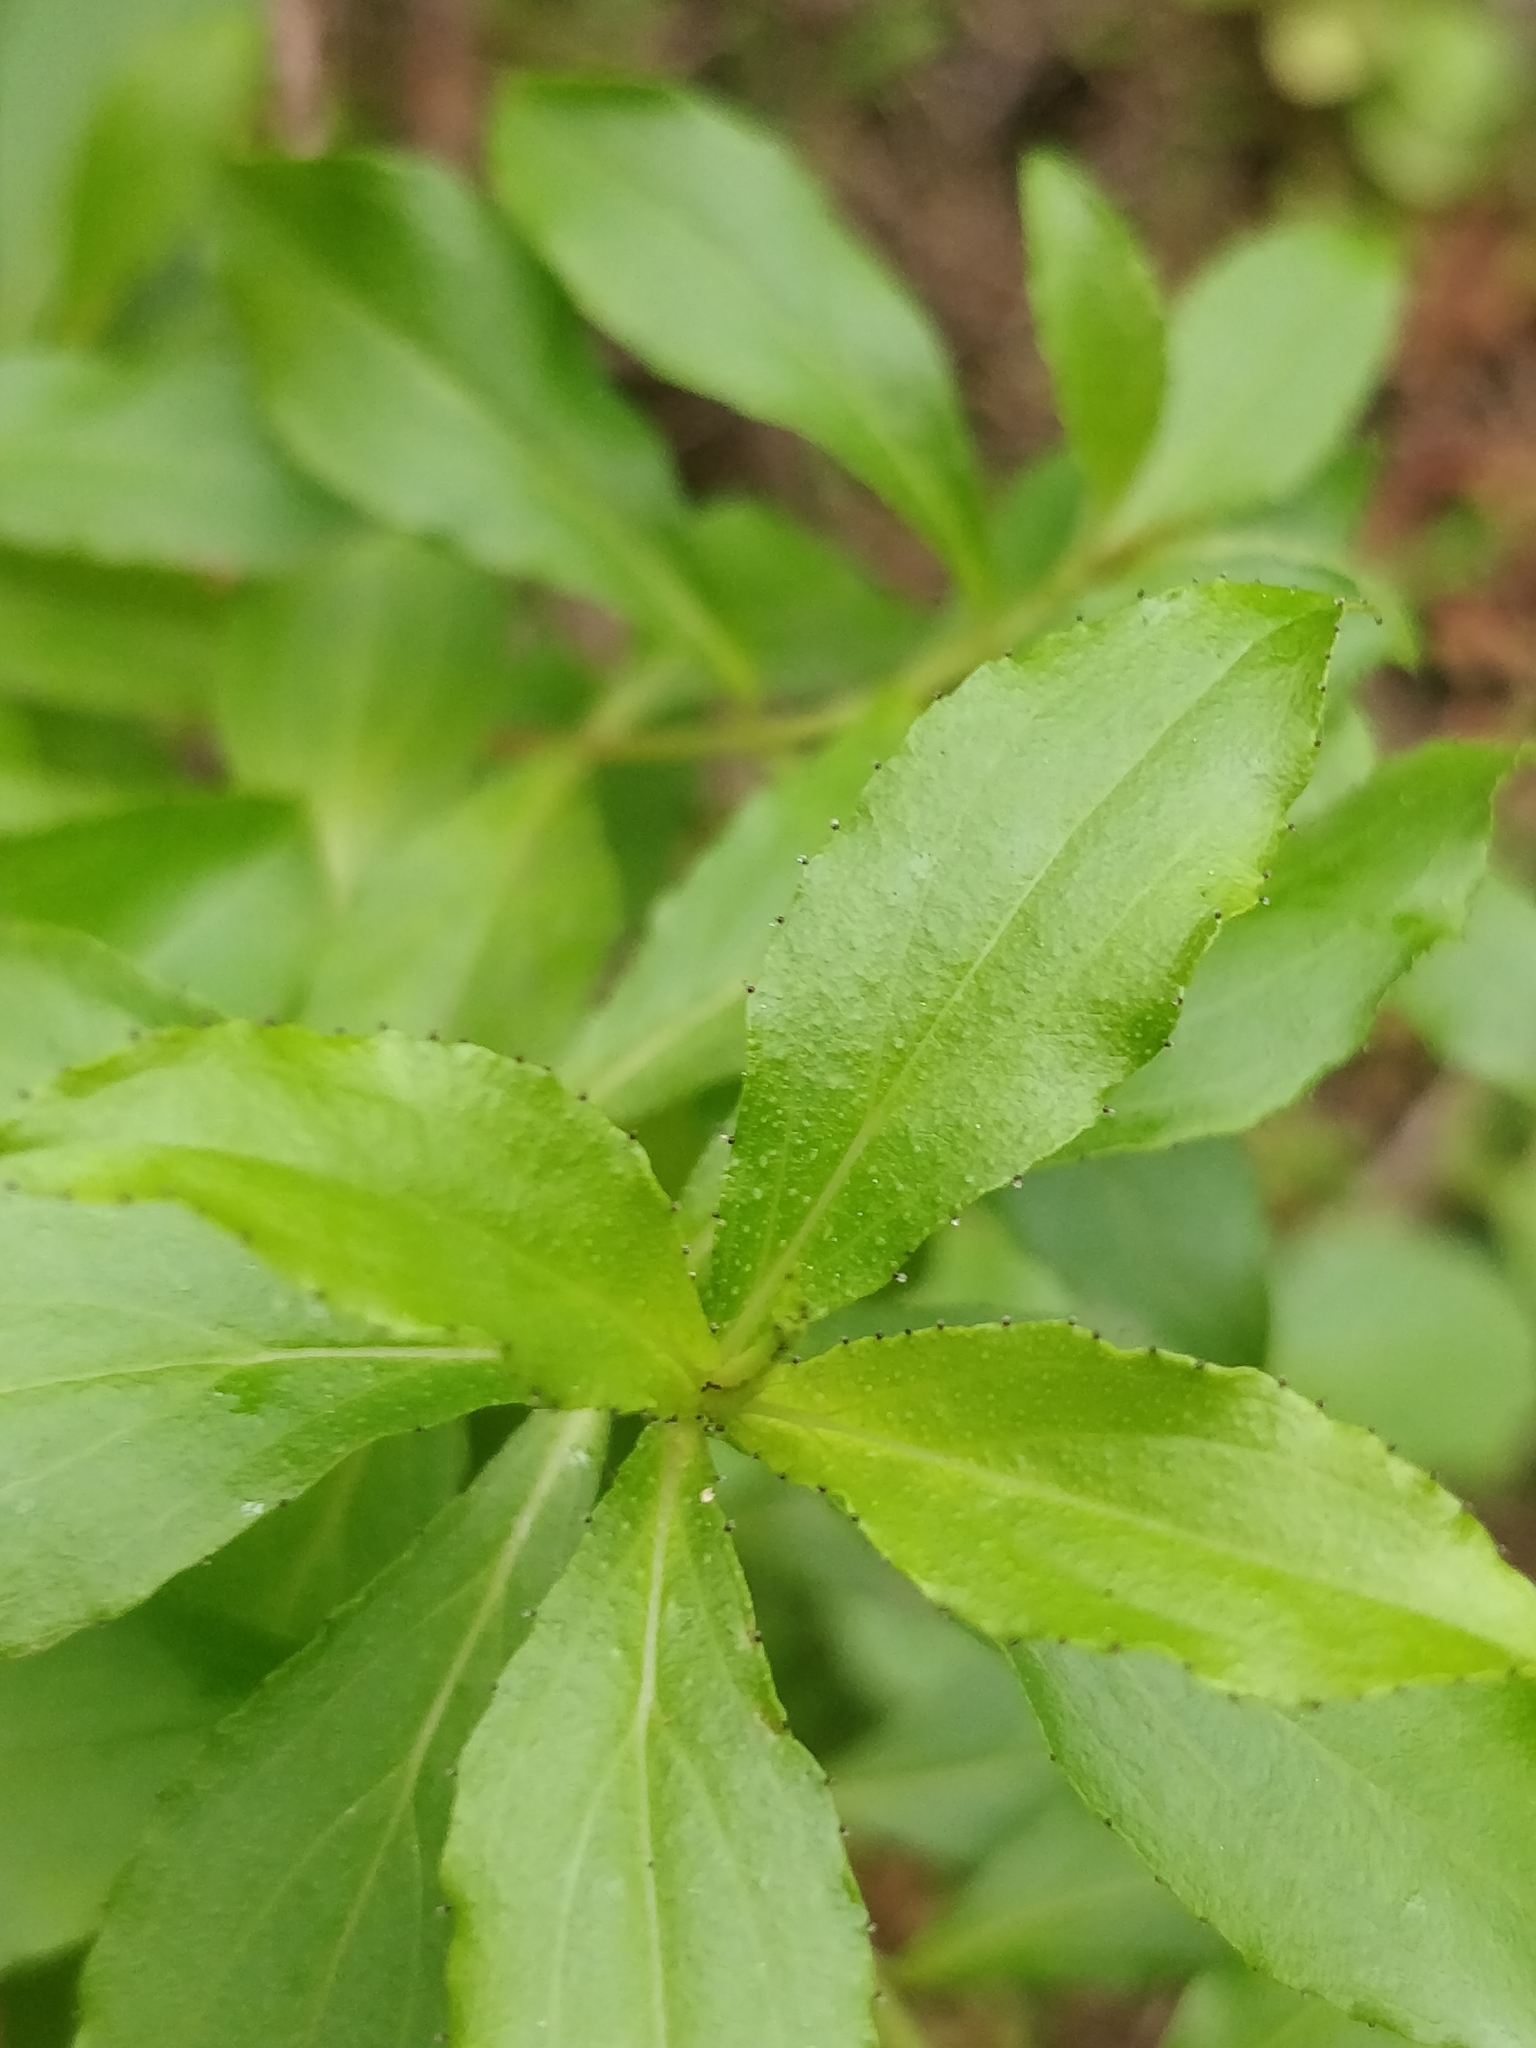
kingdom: Plantae
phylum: Tracheophyta
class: Magnoliopsida
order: Malpighiales
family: Hypericaceae
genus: Hypericum
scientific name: Hypericum glandulosum
